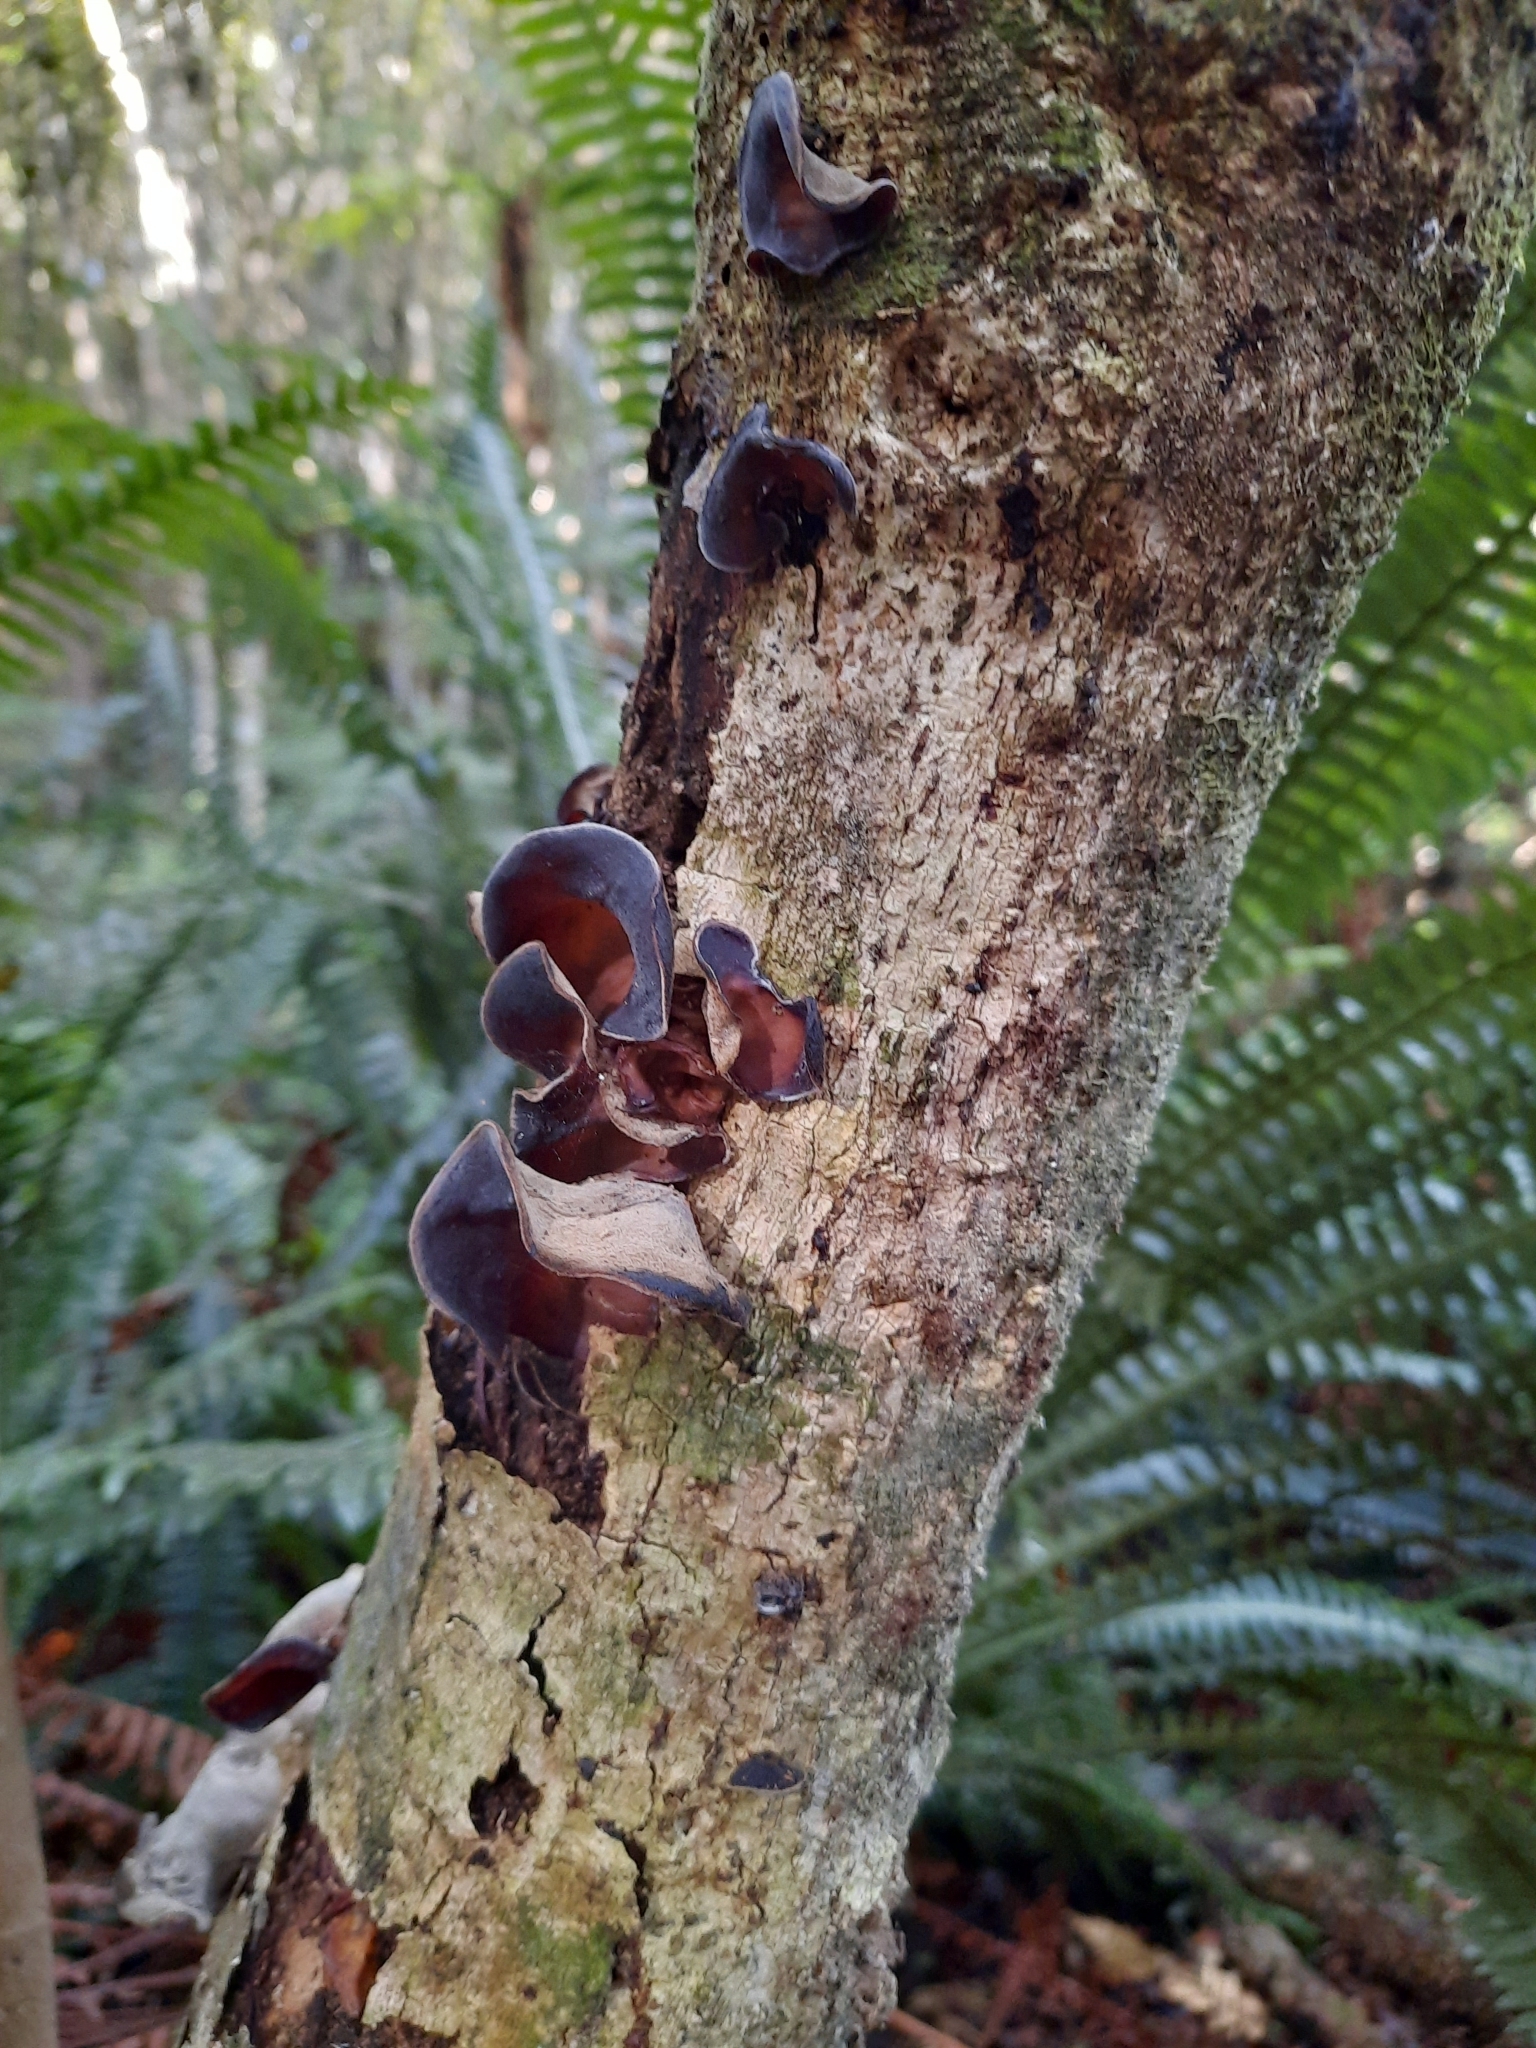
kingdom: Fungi
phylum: Basidiomycota
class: Agaricomycetes
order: Auriculariales
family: Auriculariaceae
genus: Auricularia
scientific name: Auricularia cornea
